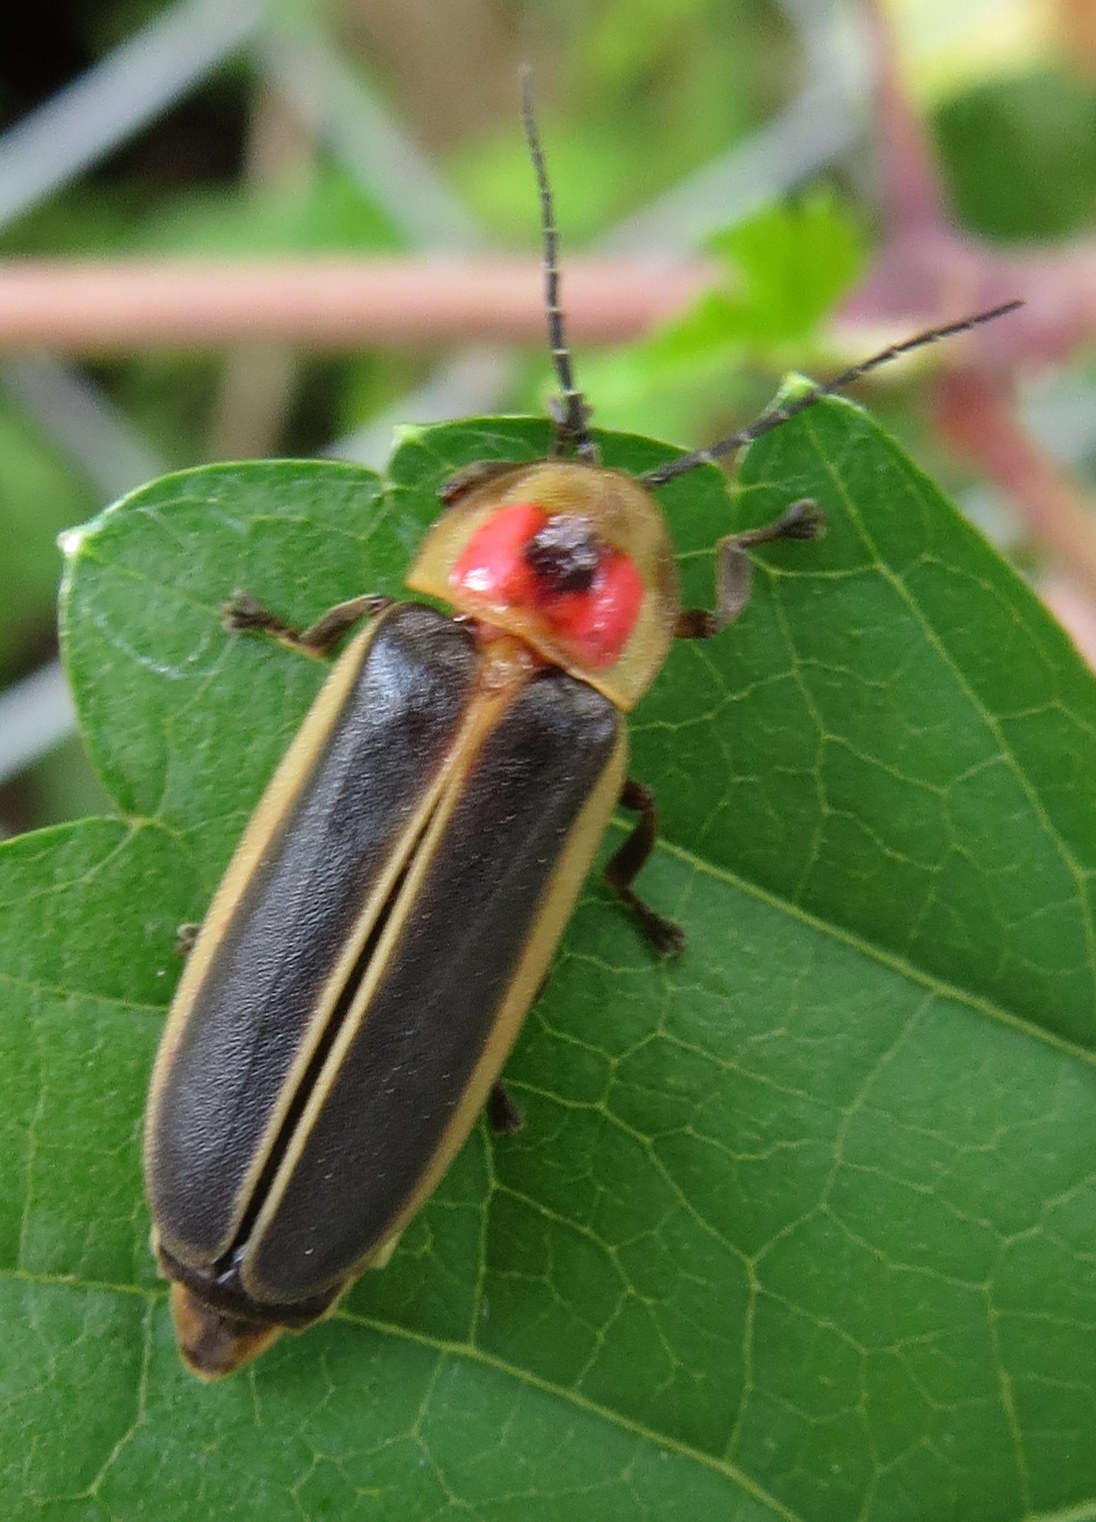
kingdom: Animalia
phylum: Arthropoda
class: Insecta
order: Coleoptera
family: Lampyridae
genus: Photinus
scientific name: Photinus pyralis
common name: Big dipper firefly
